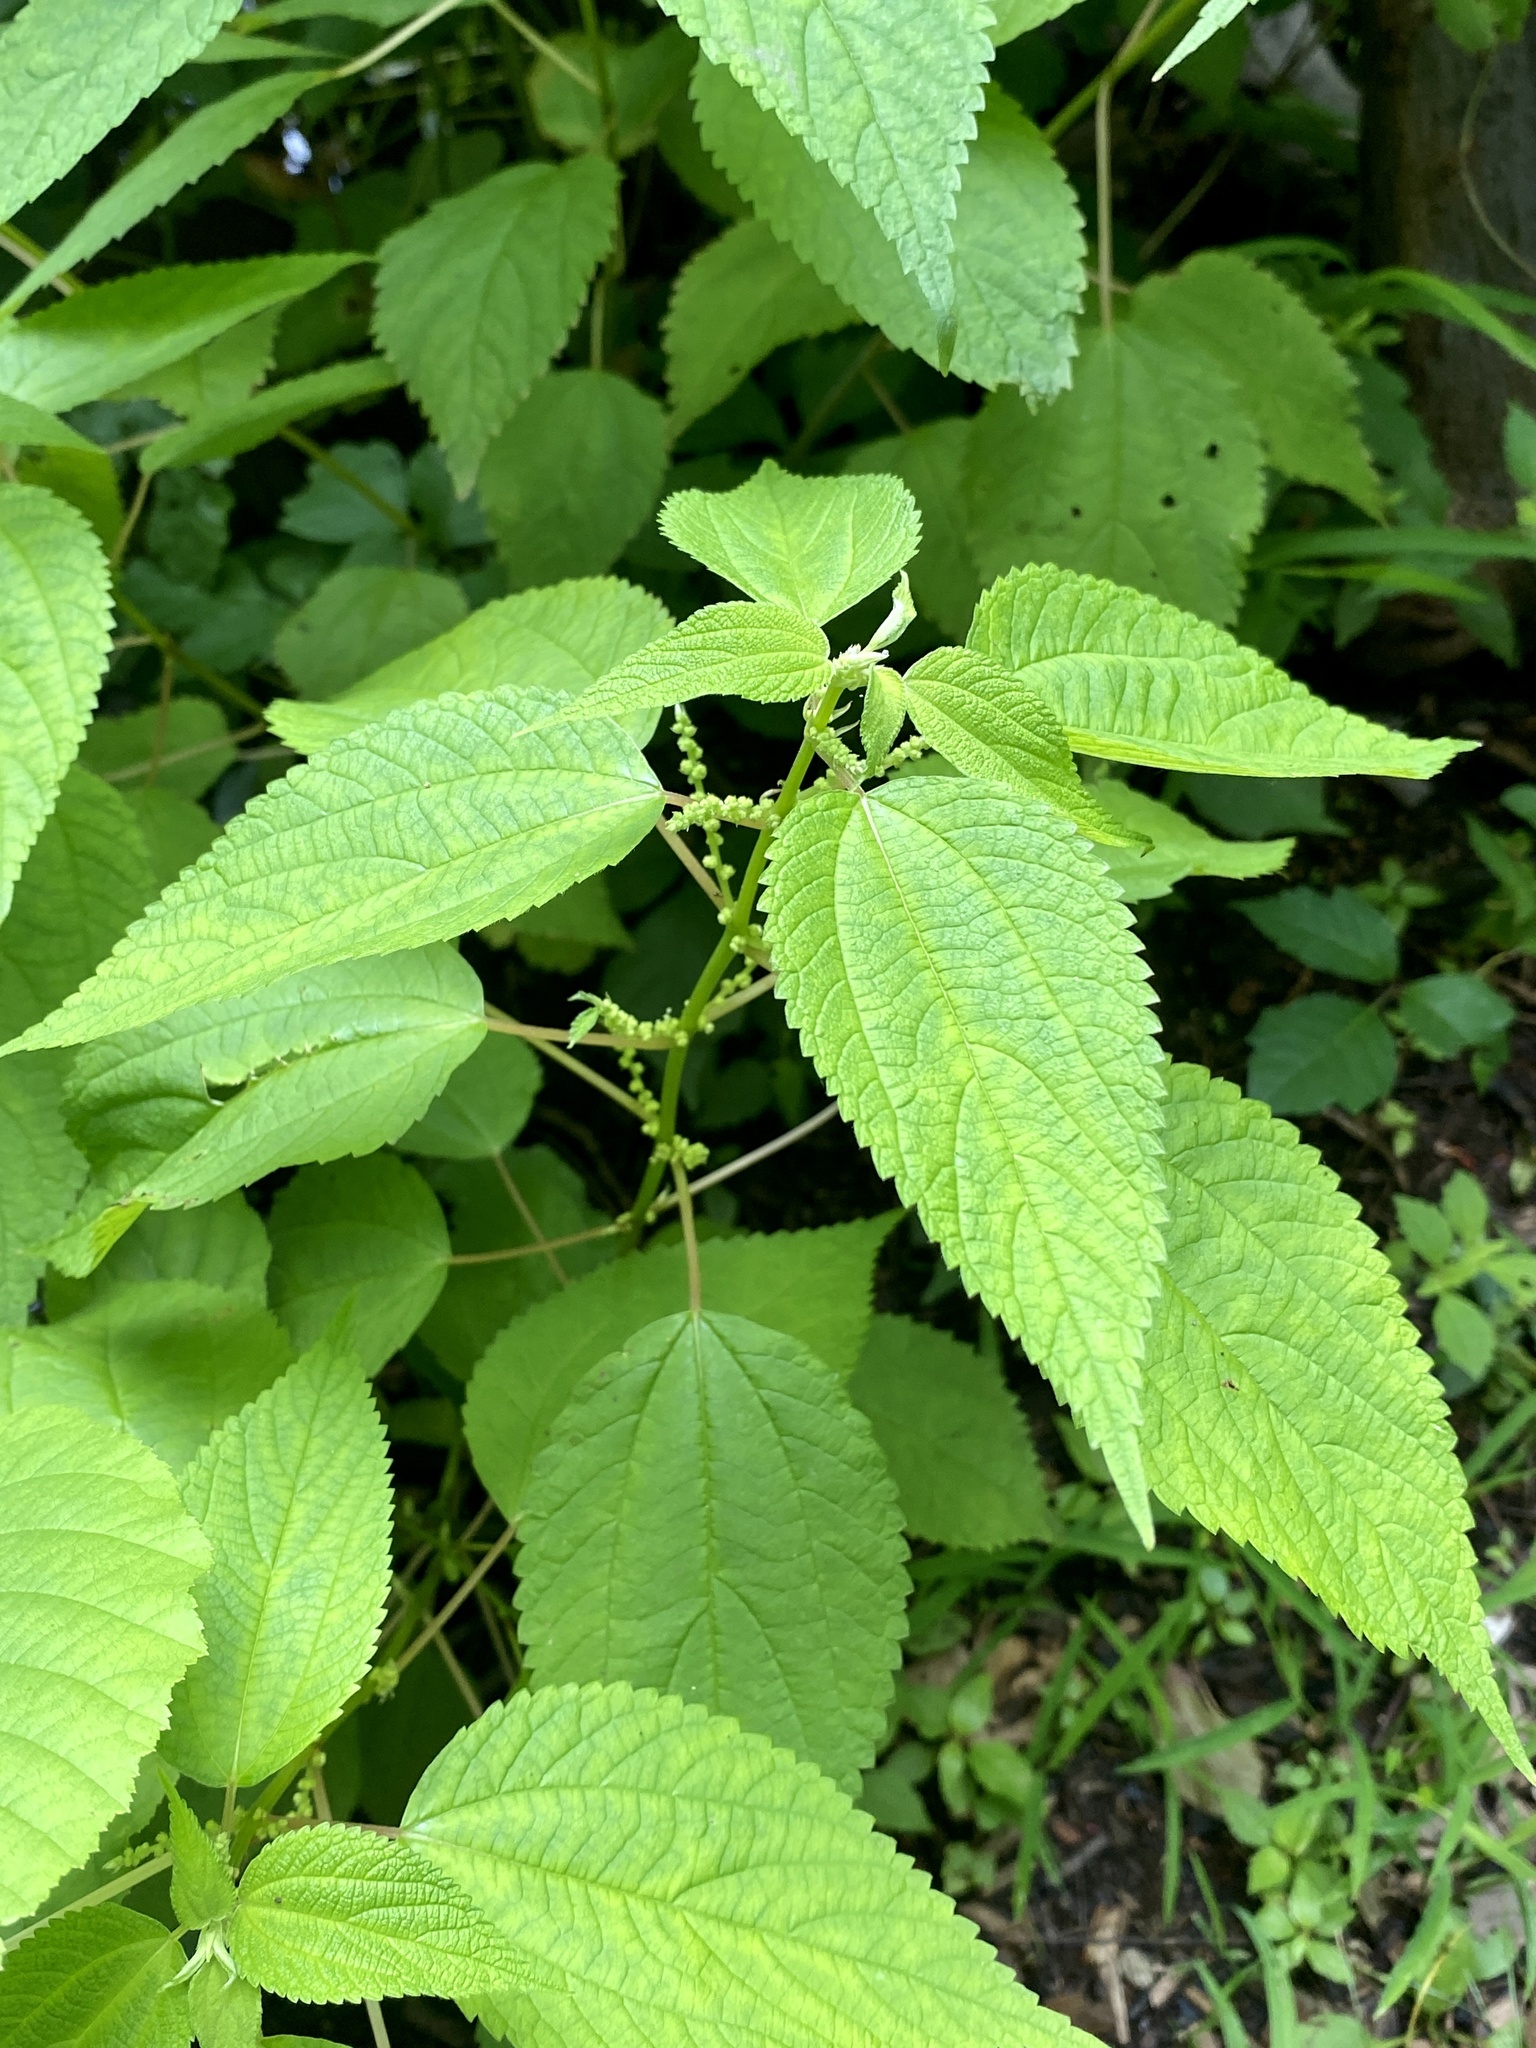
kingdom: Plantae
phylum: Tracheophyta
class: Magnoliopsida
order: Rosales
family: Urticaceae
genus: Boehmeria
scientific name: Boehmeria cylindrica
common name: Bog-hemp
